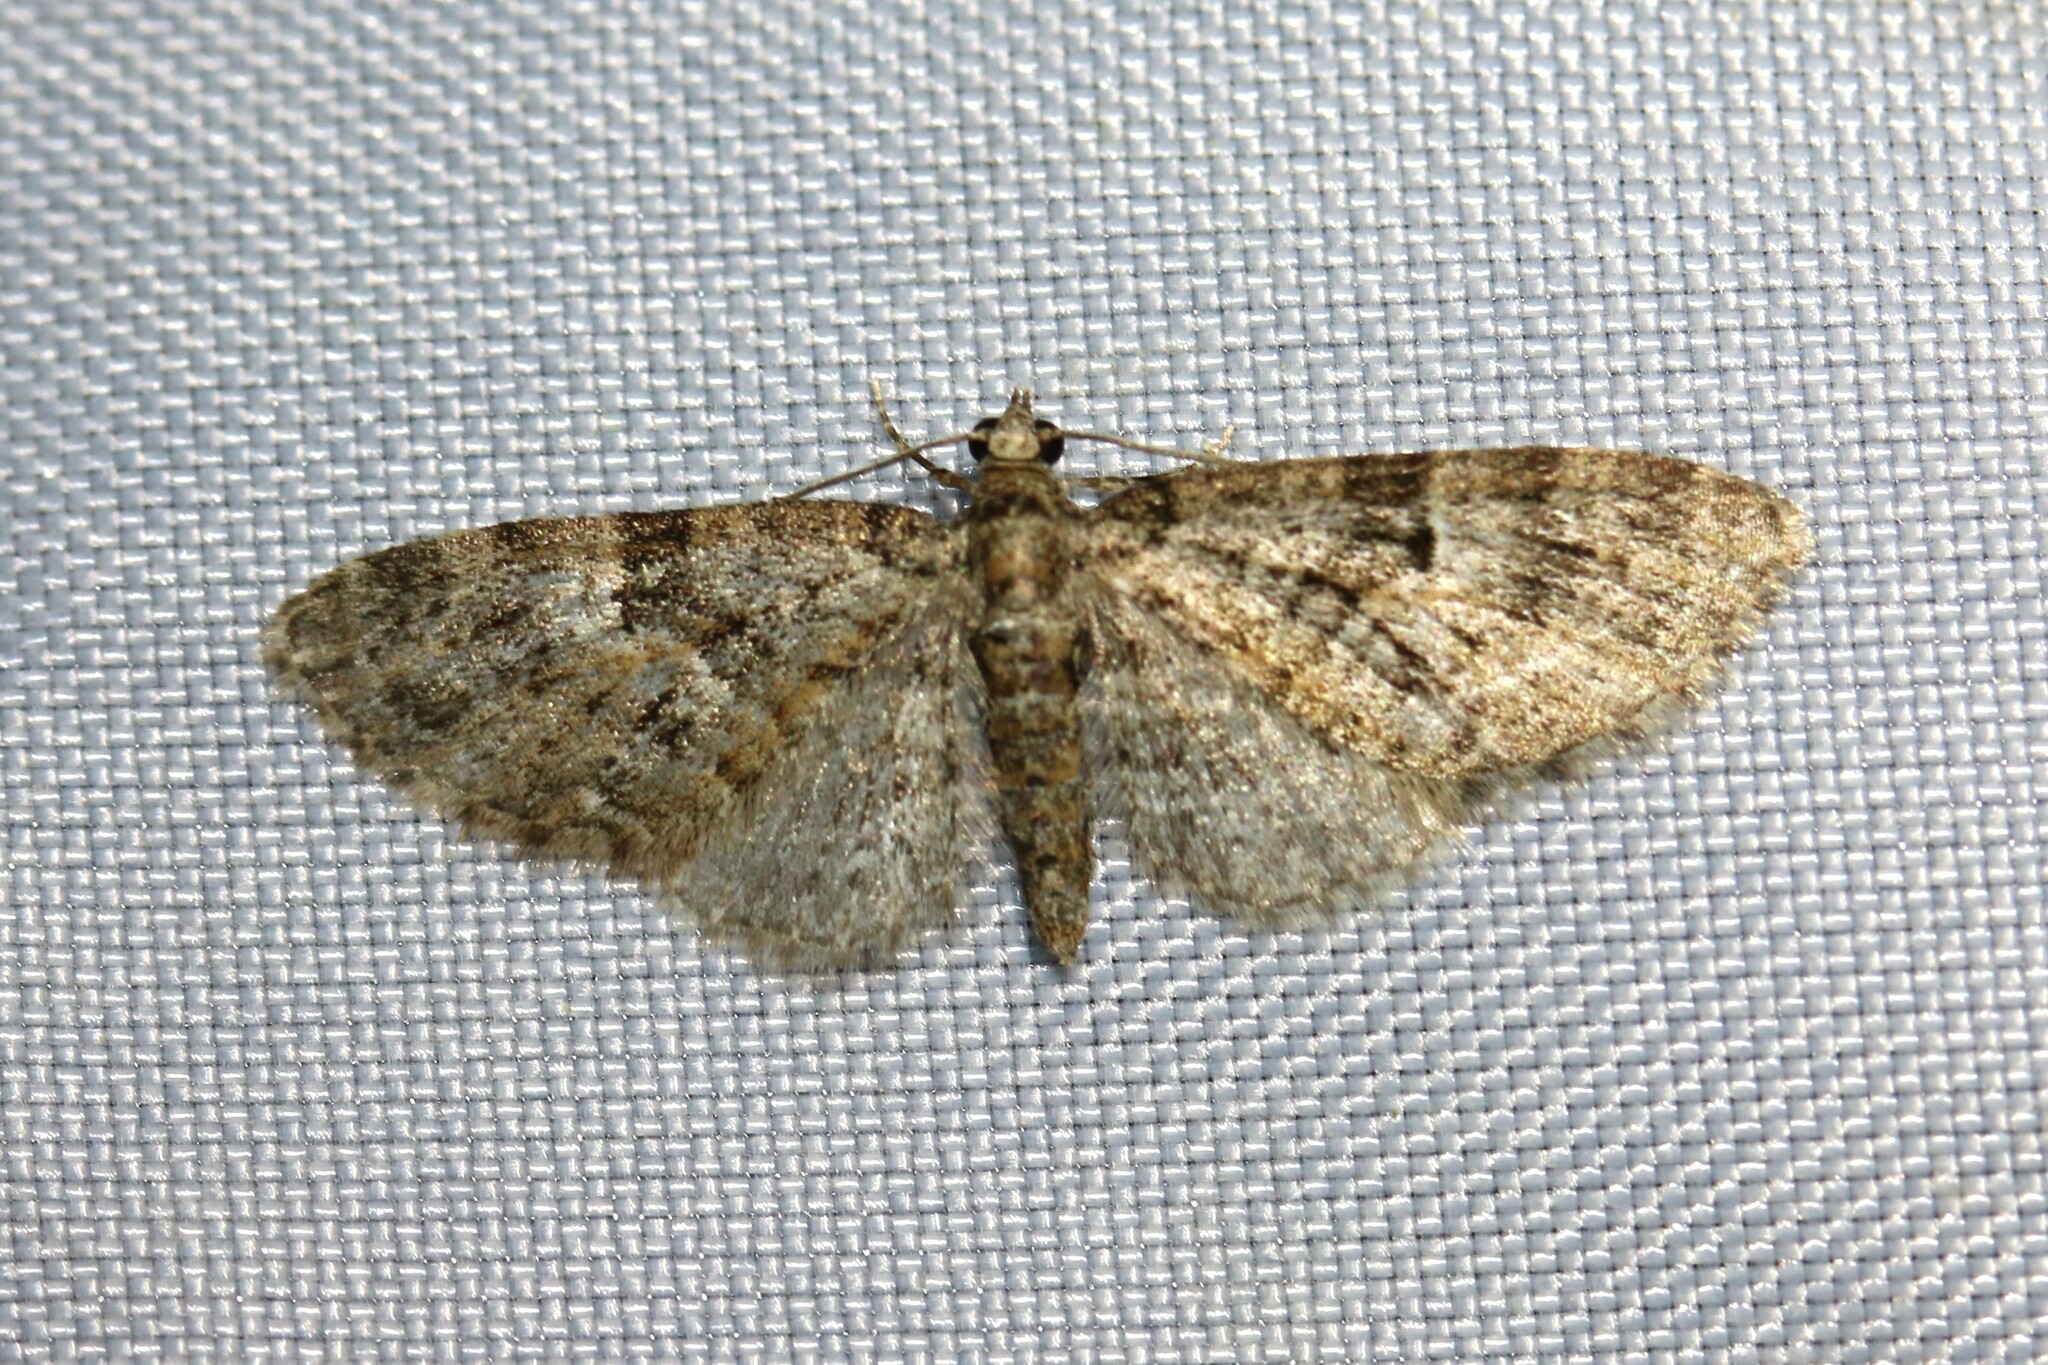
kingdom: Animalia
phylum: Arthropoda
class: Insecta
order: Lepidoptera
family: Geometridae
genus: Eupithecia
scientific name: Eupithecia dodoneata
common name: Oak-tree pug
